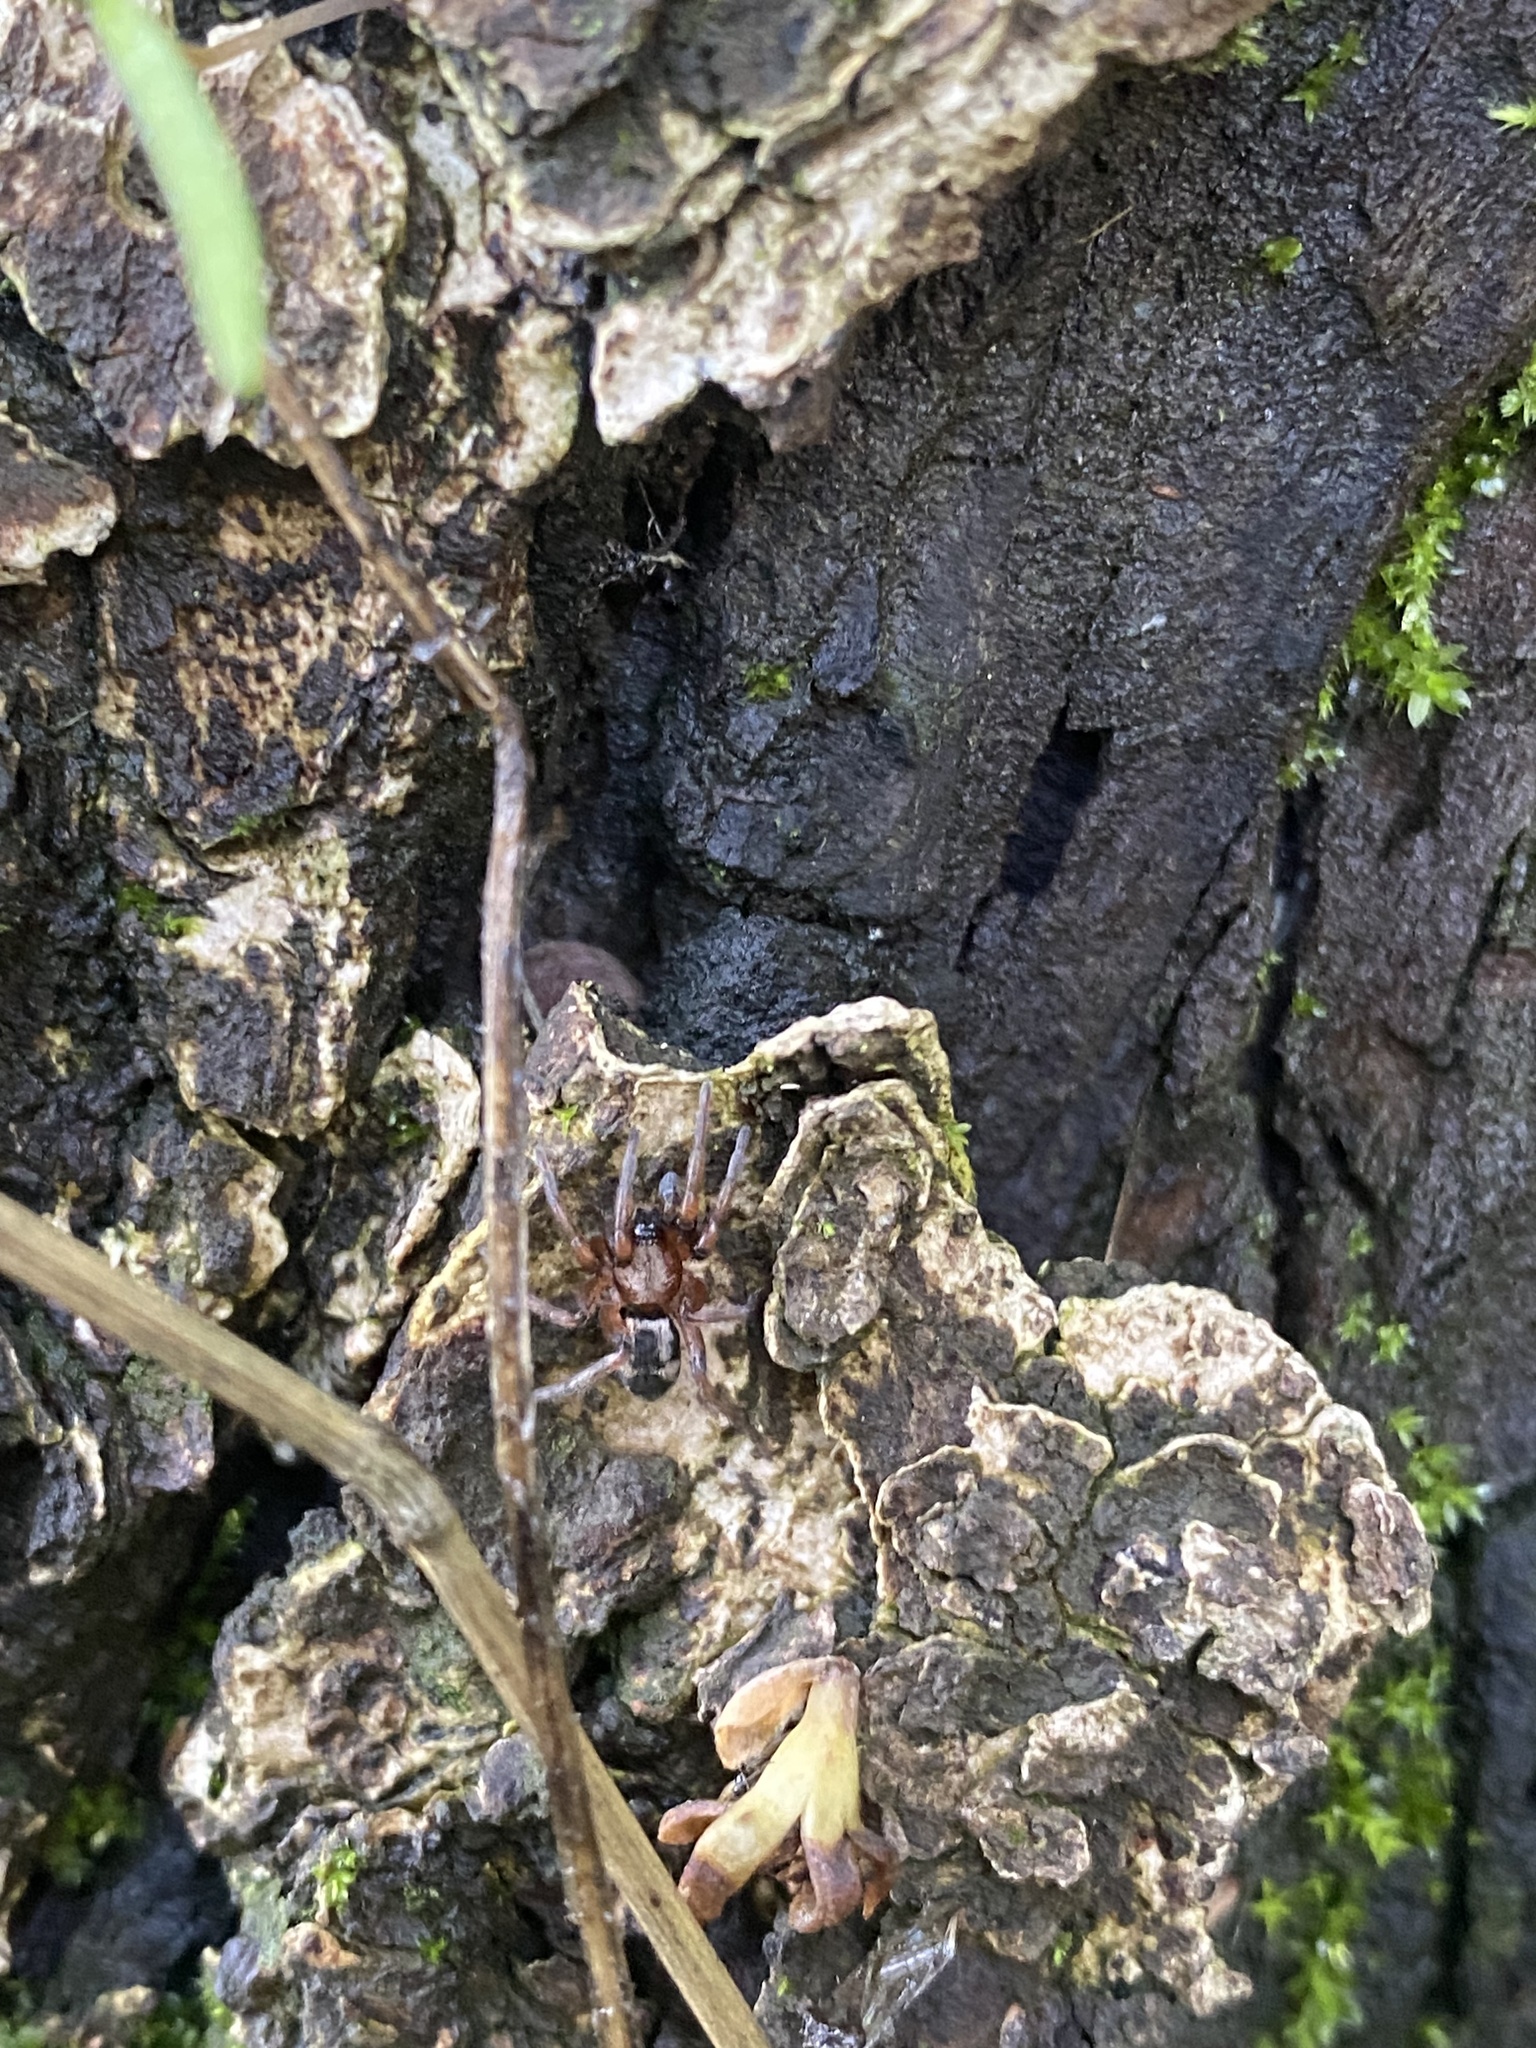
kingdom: Animalia
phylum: Arthropoda
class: Arachnida
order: Araneae
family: Gnaphosidae
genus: Sergiolus
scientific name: Sergiolus montanus
